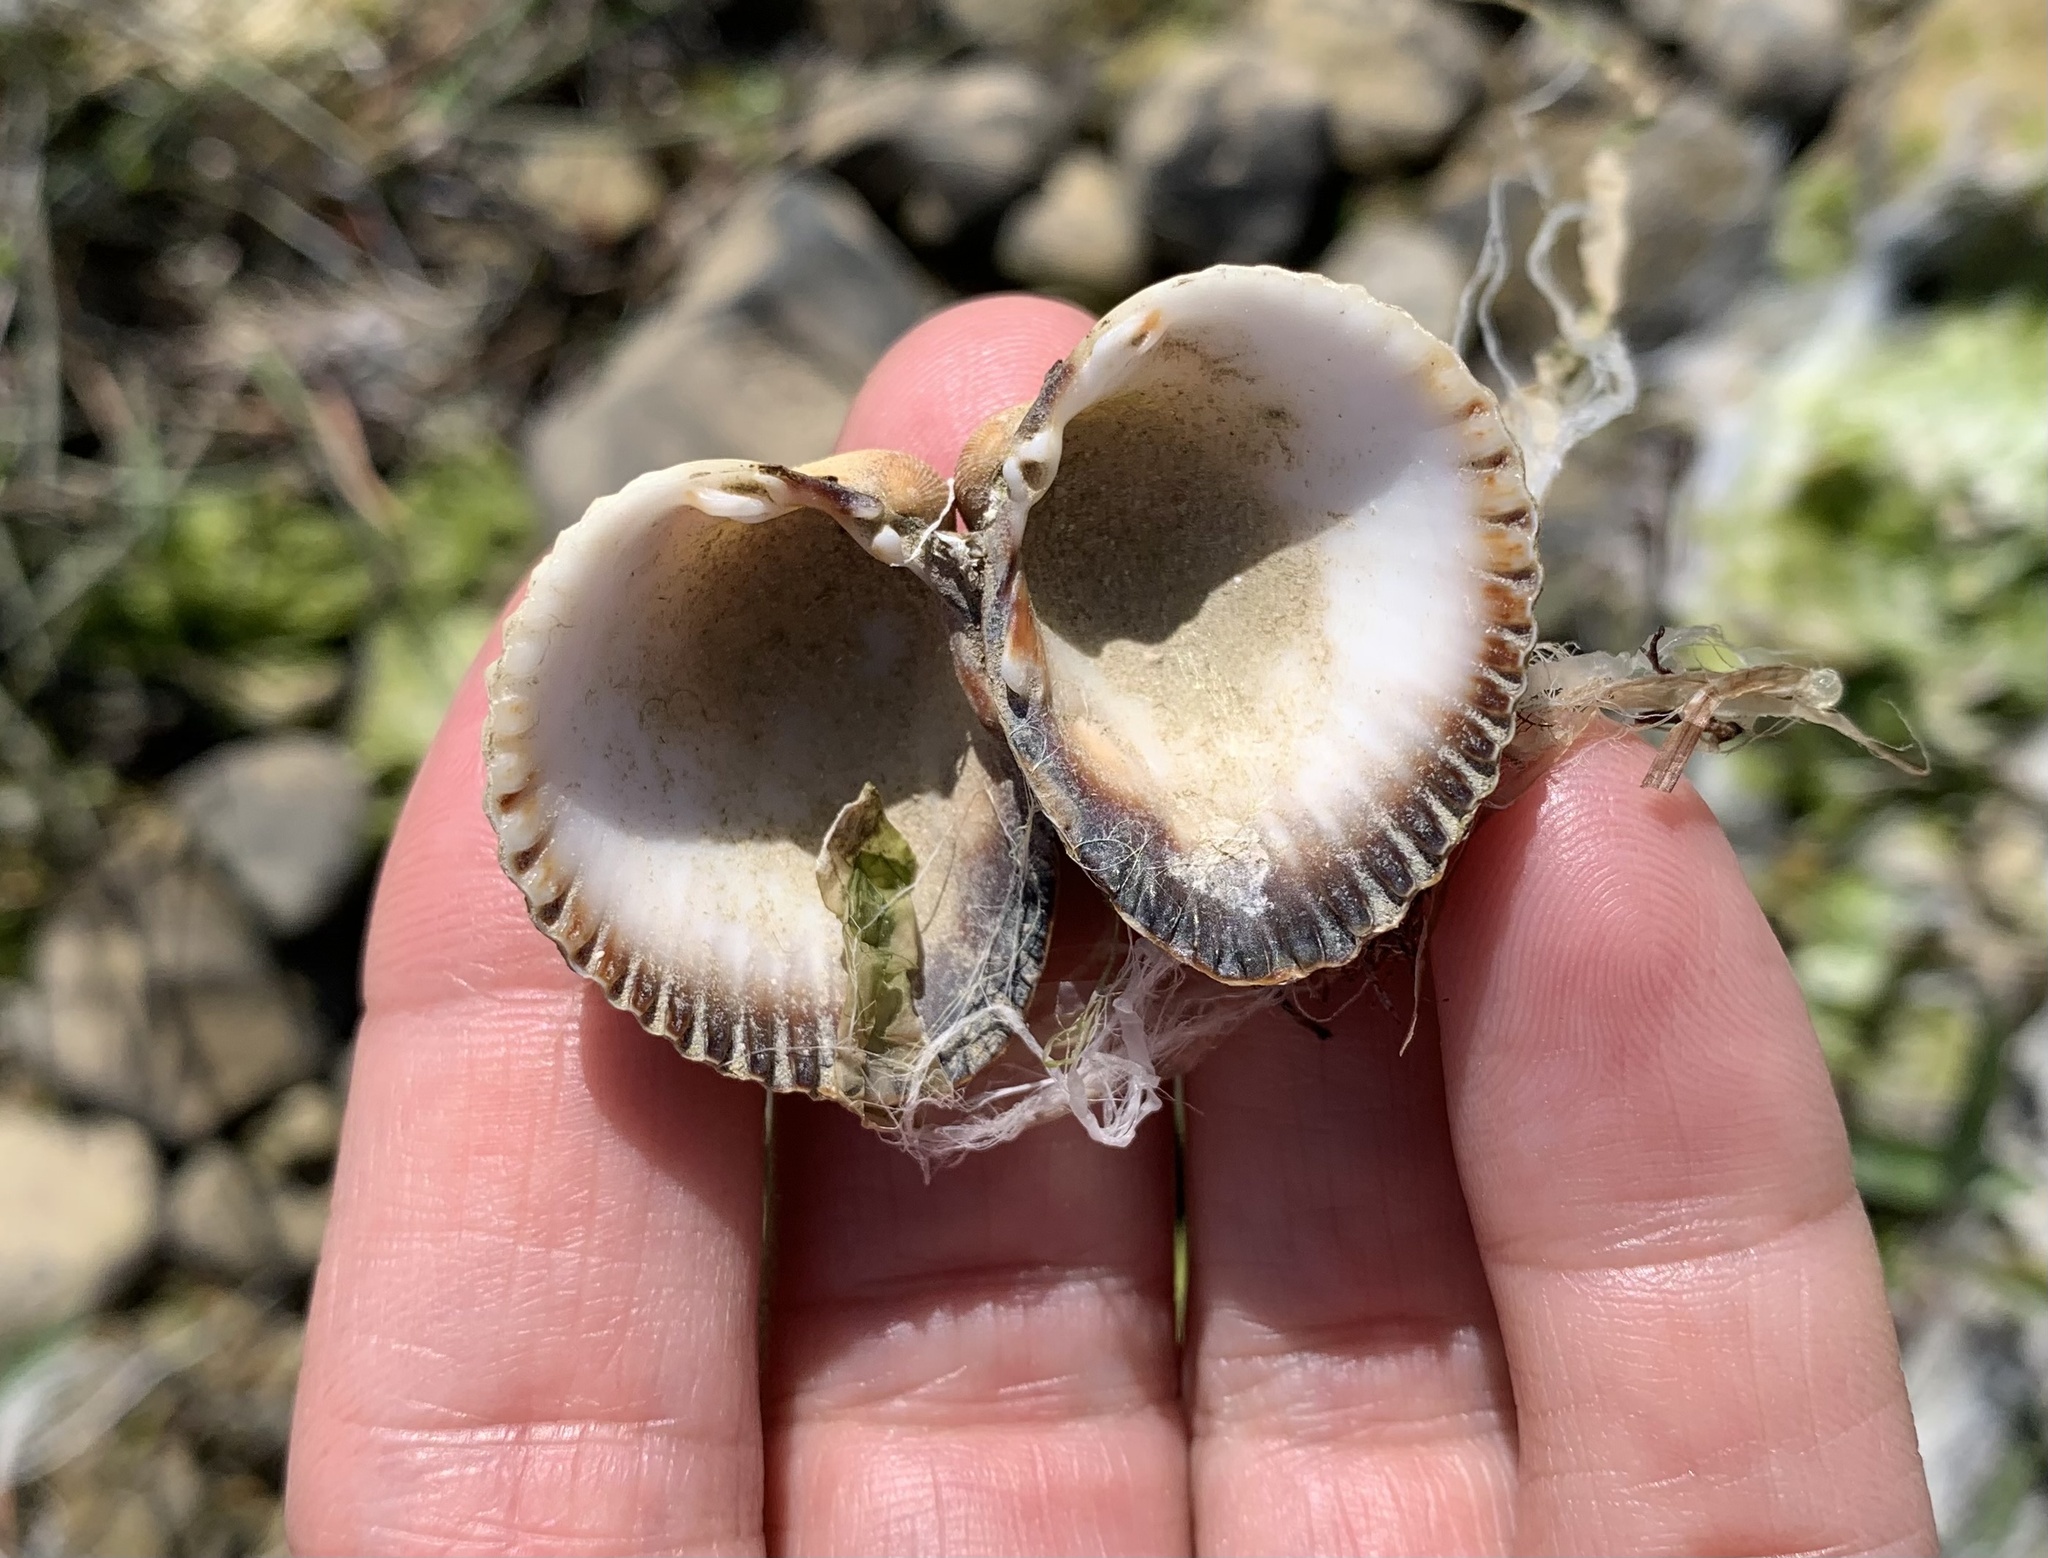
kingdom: Animalia
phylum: Mollusca
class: Bivalvia
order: Cardiida
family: Cardiidae
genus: Cerastoderma
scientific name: Cerastoderma glaucum
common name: Lagoon cockle
